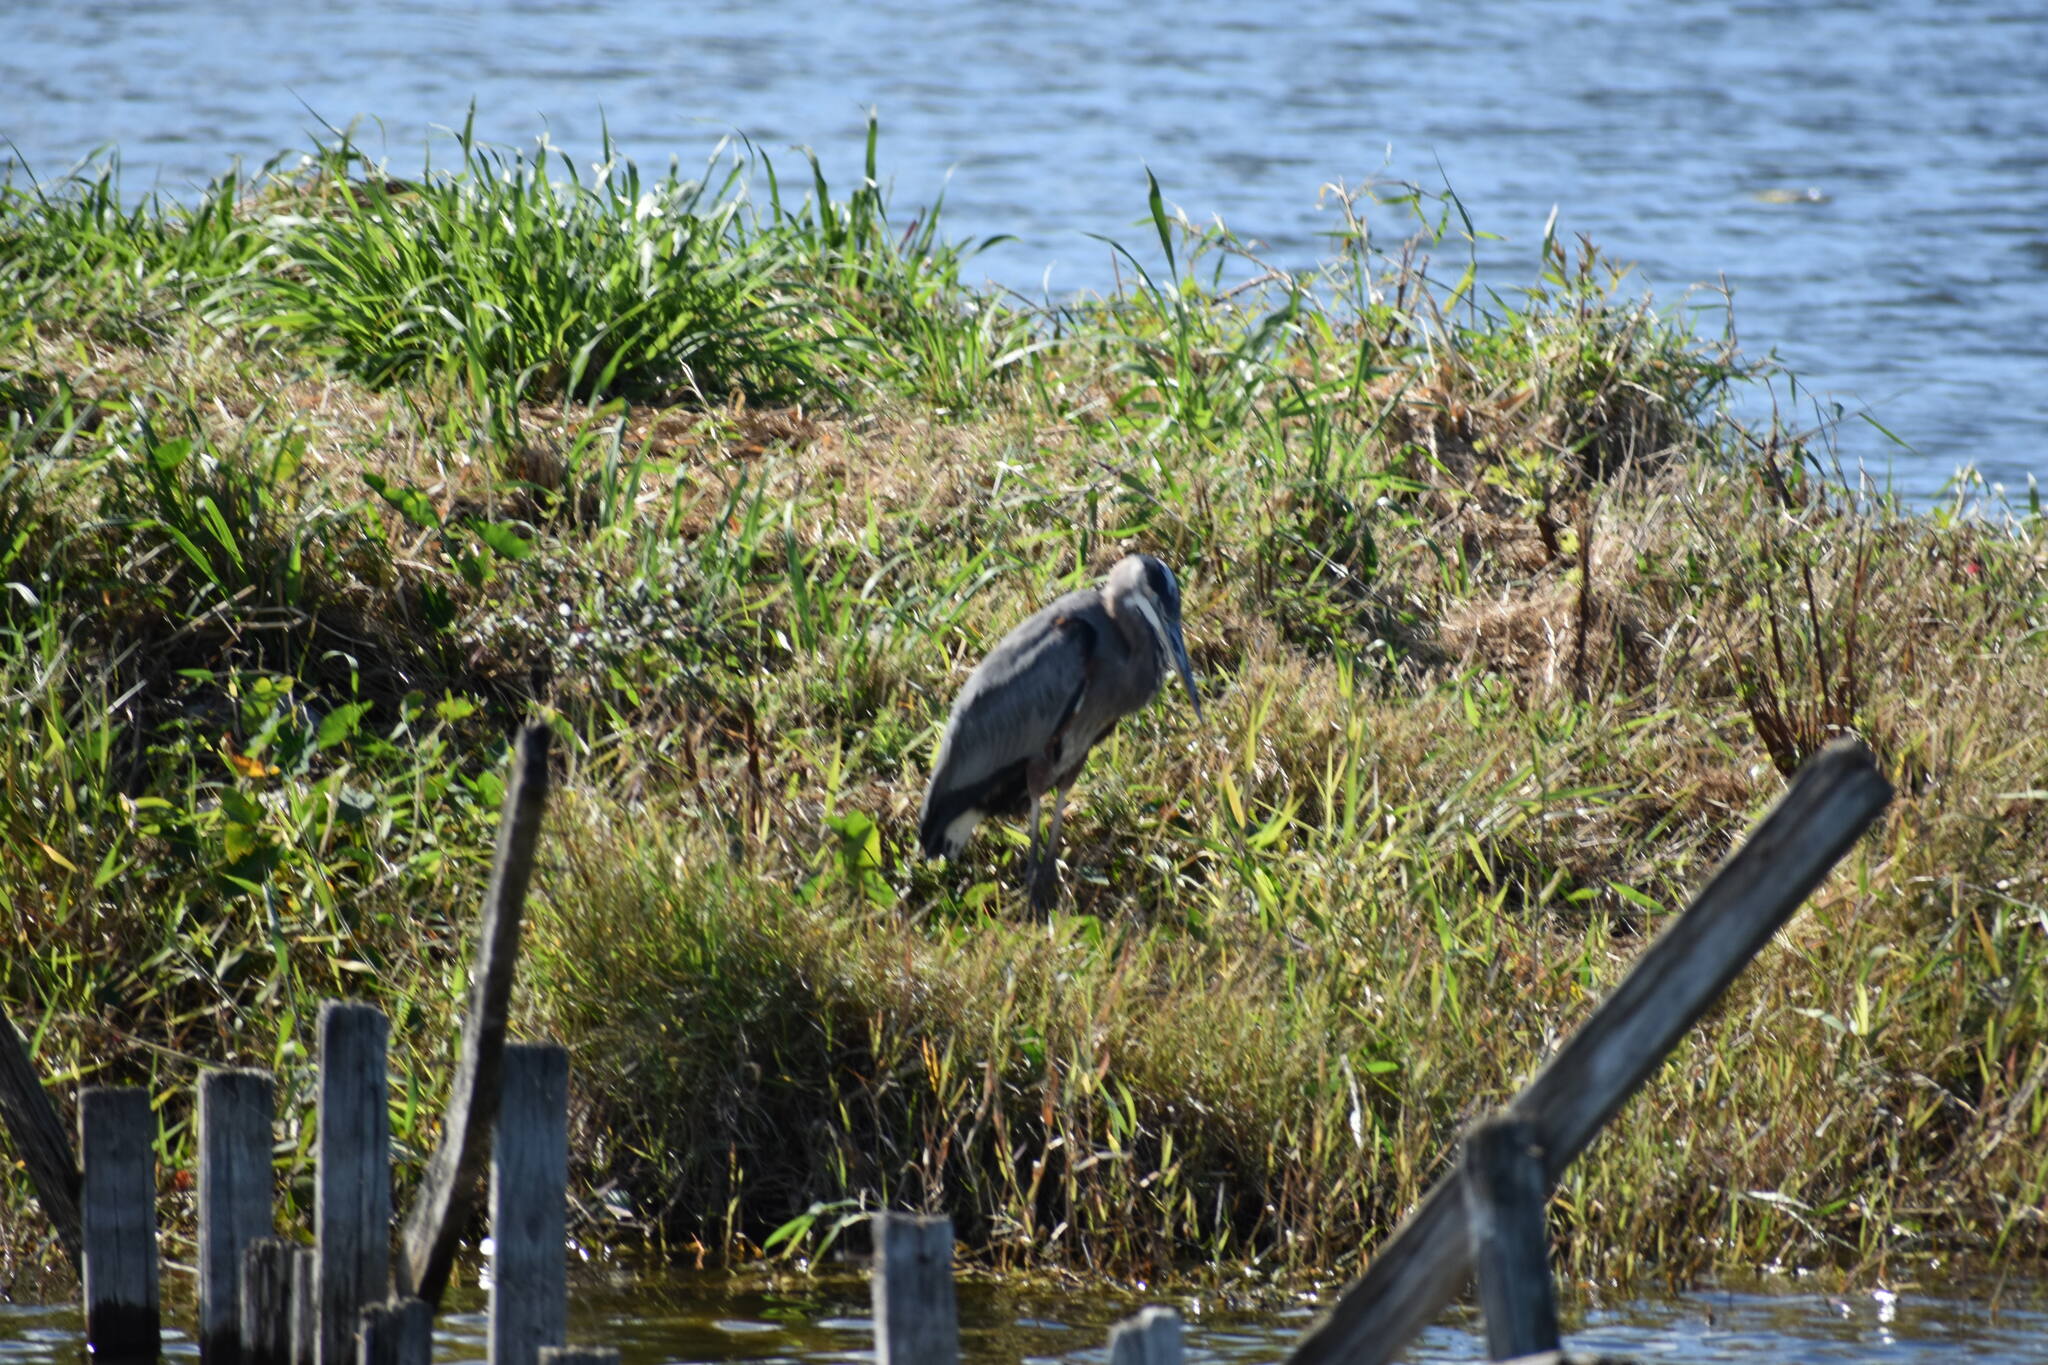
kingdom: Animalia
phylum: Chordata
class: Aves
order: Pelecaniformes
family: Ardeidae
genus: Ardea
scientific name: Ardea herodias
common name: Great blue heron
